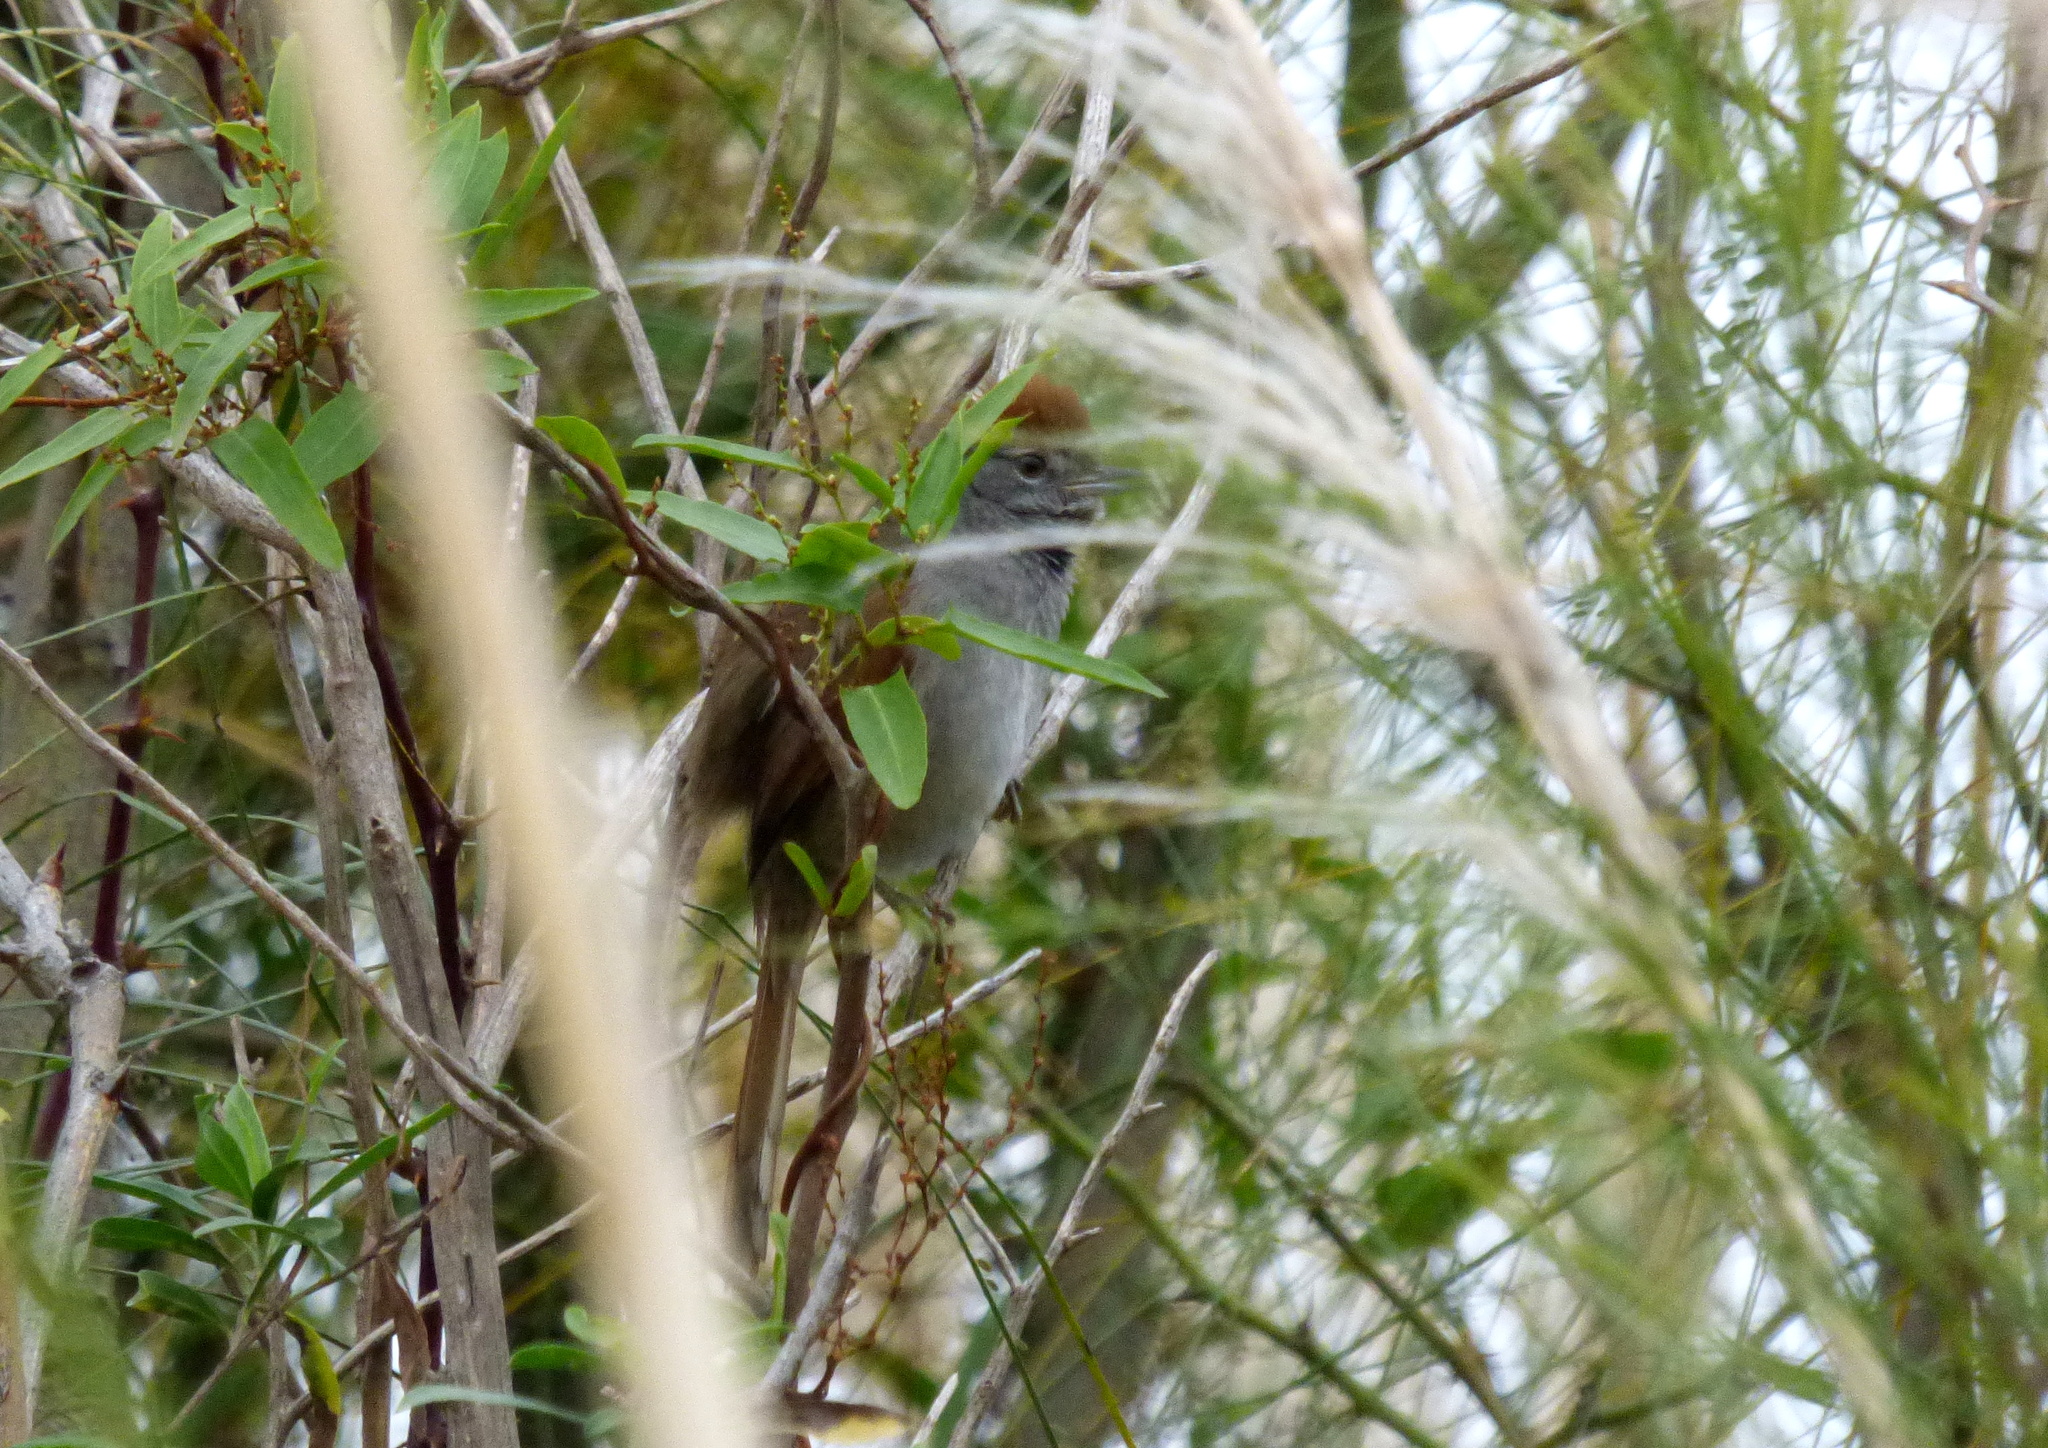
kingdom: Animalia
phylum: Chordata
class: Aves
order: Passeriformes
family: Furnariidae
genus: Synallaxis
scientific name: Synallaxis frontalis
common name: Sooty-fronted spinetail
